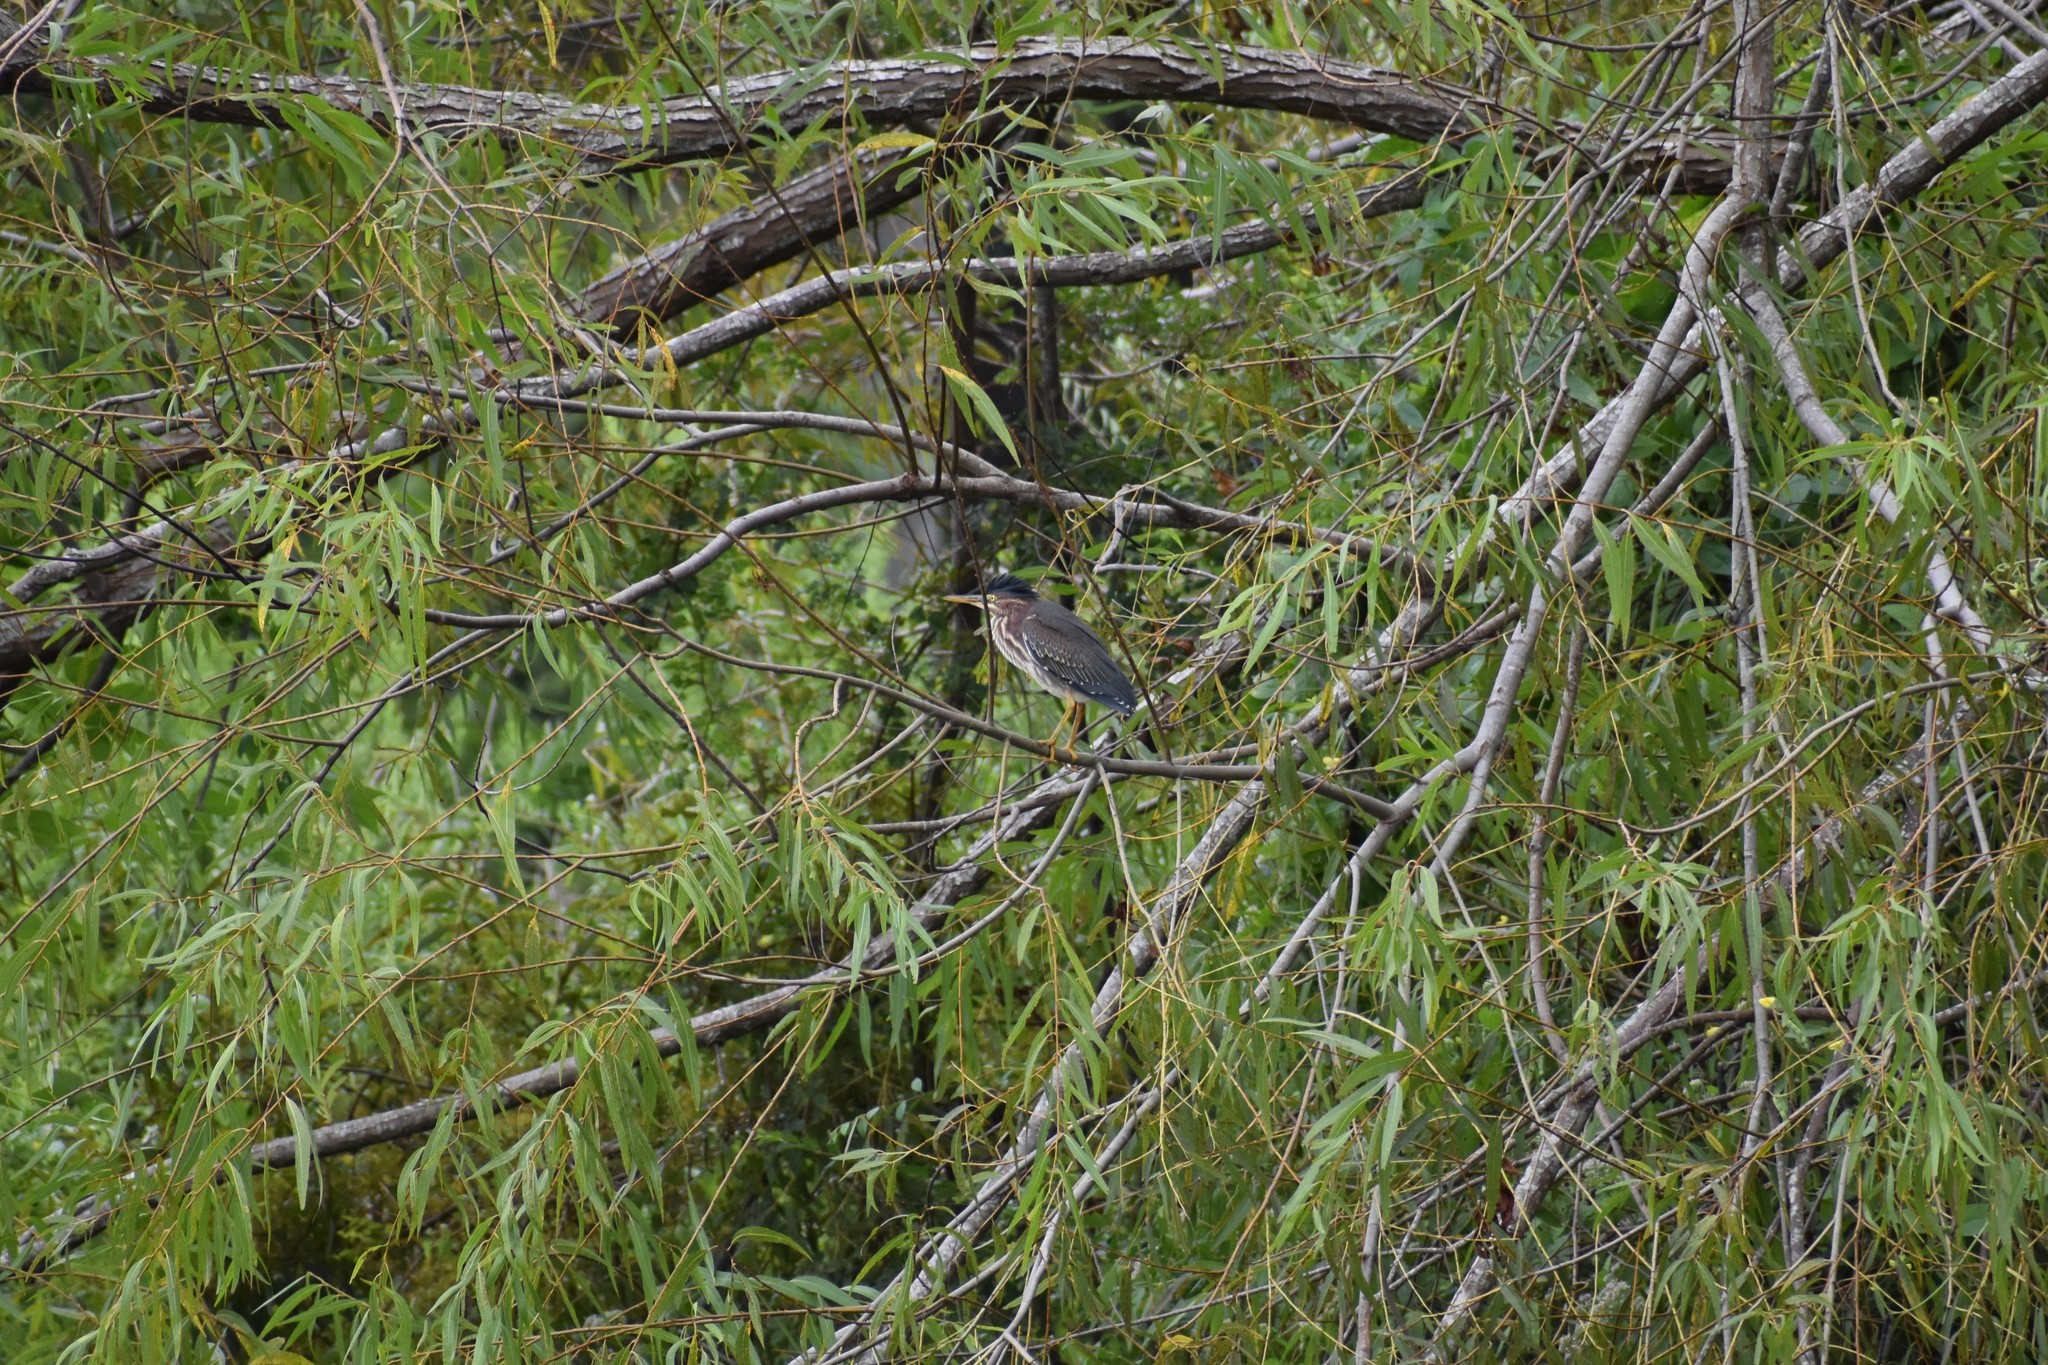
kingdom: Animalia
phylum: Chordata
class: Aves
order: Pelecaniformes
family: Ardeidae
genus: Butorides
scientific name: Butorides virescens
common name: Green heron
